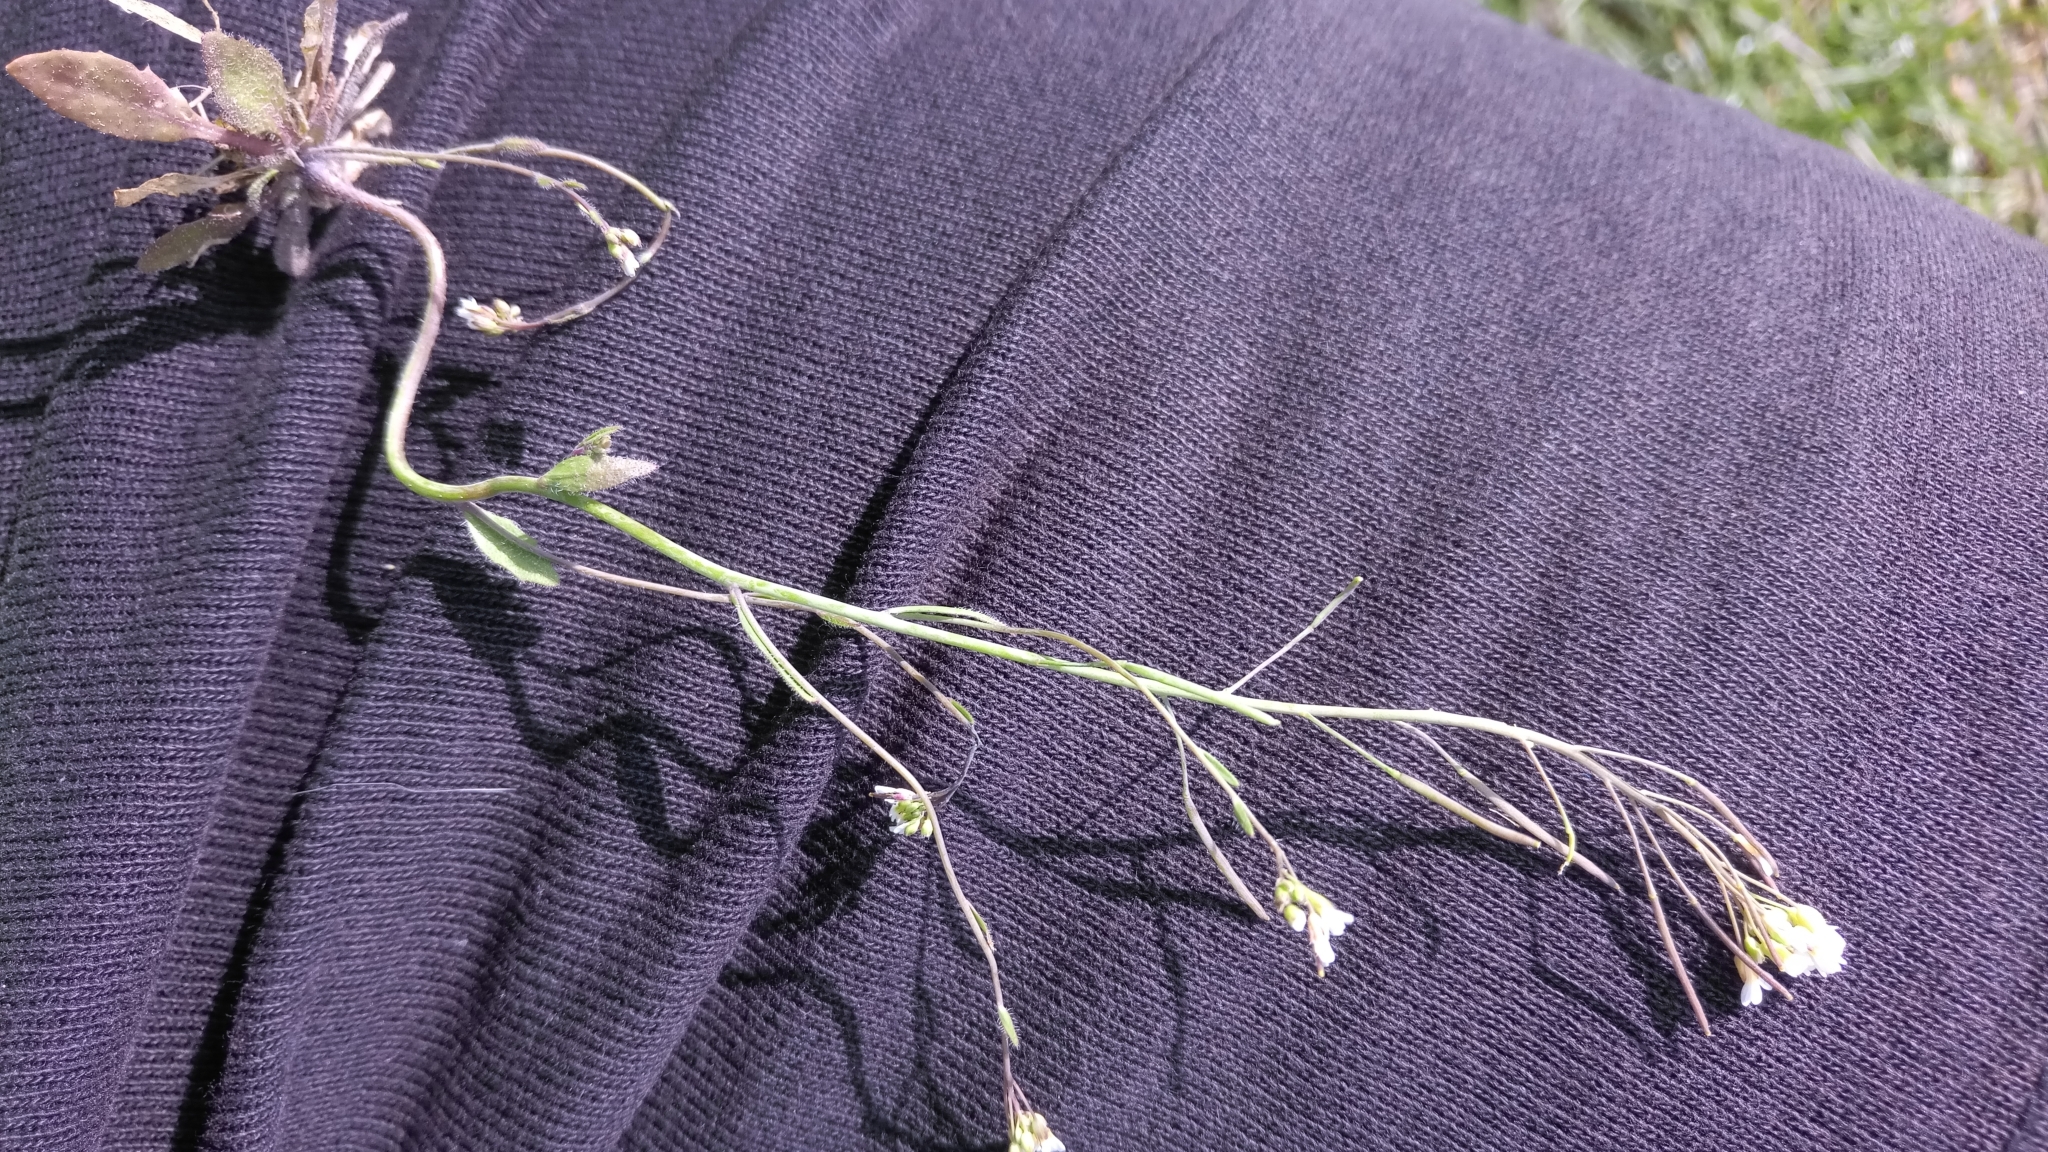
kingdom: Plantae
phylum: Tracheophyta
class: Magnoliopsida
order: Brassicales
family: Brassicaceae
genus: Arabidopsis
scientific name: Arabidopsis thaliana
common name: Thale cress
